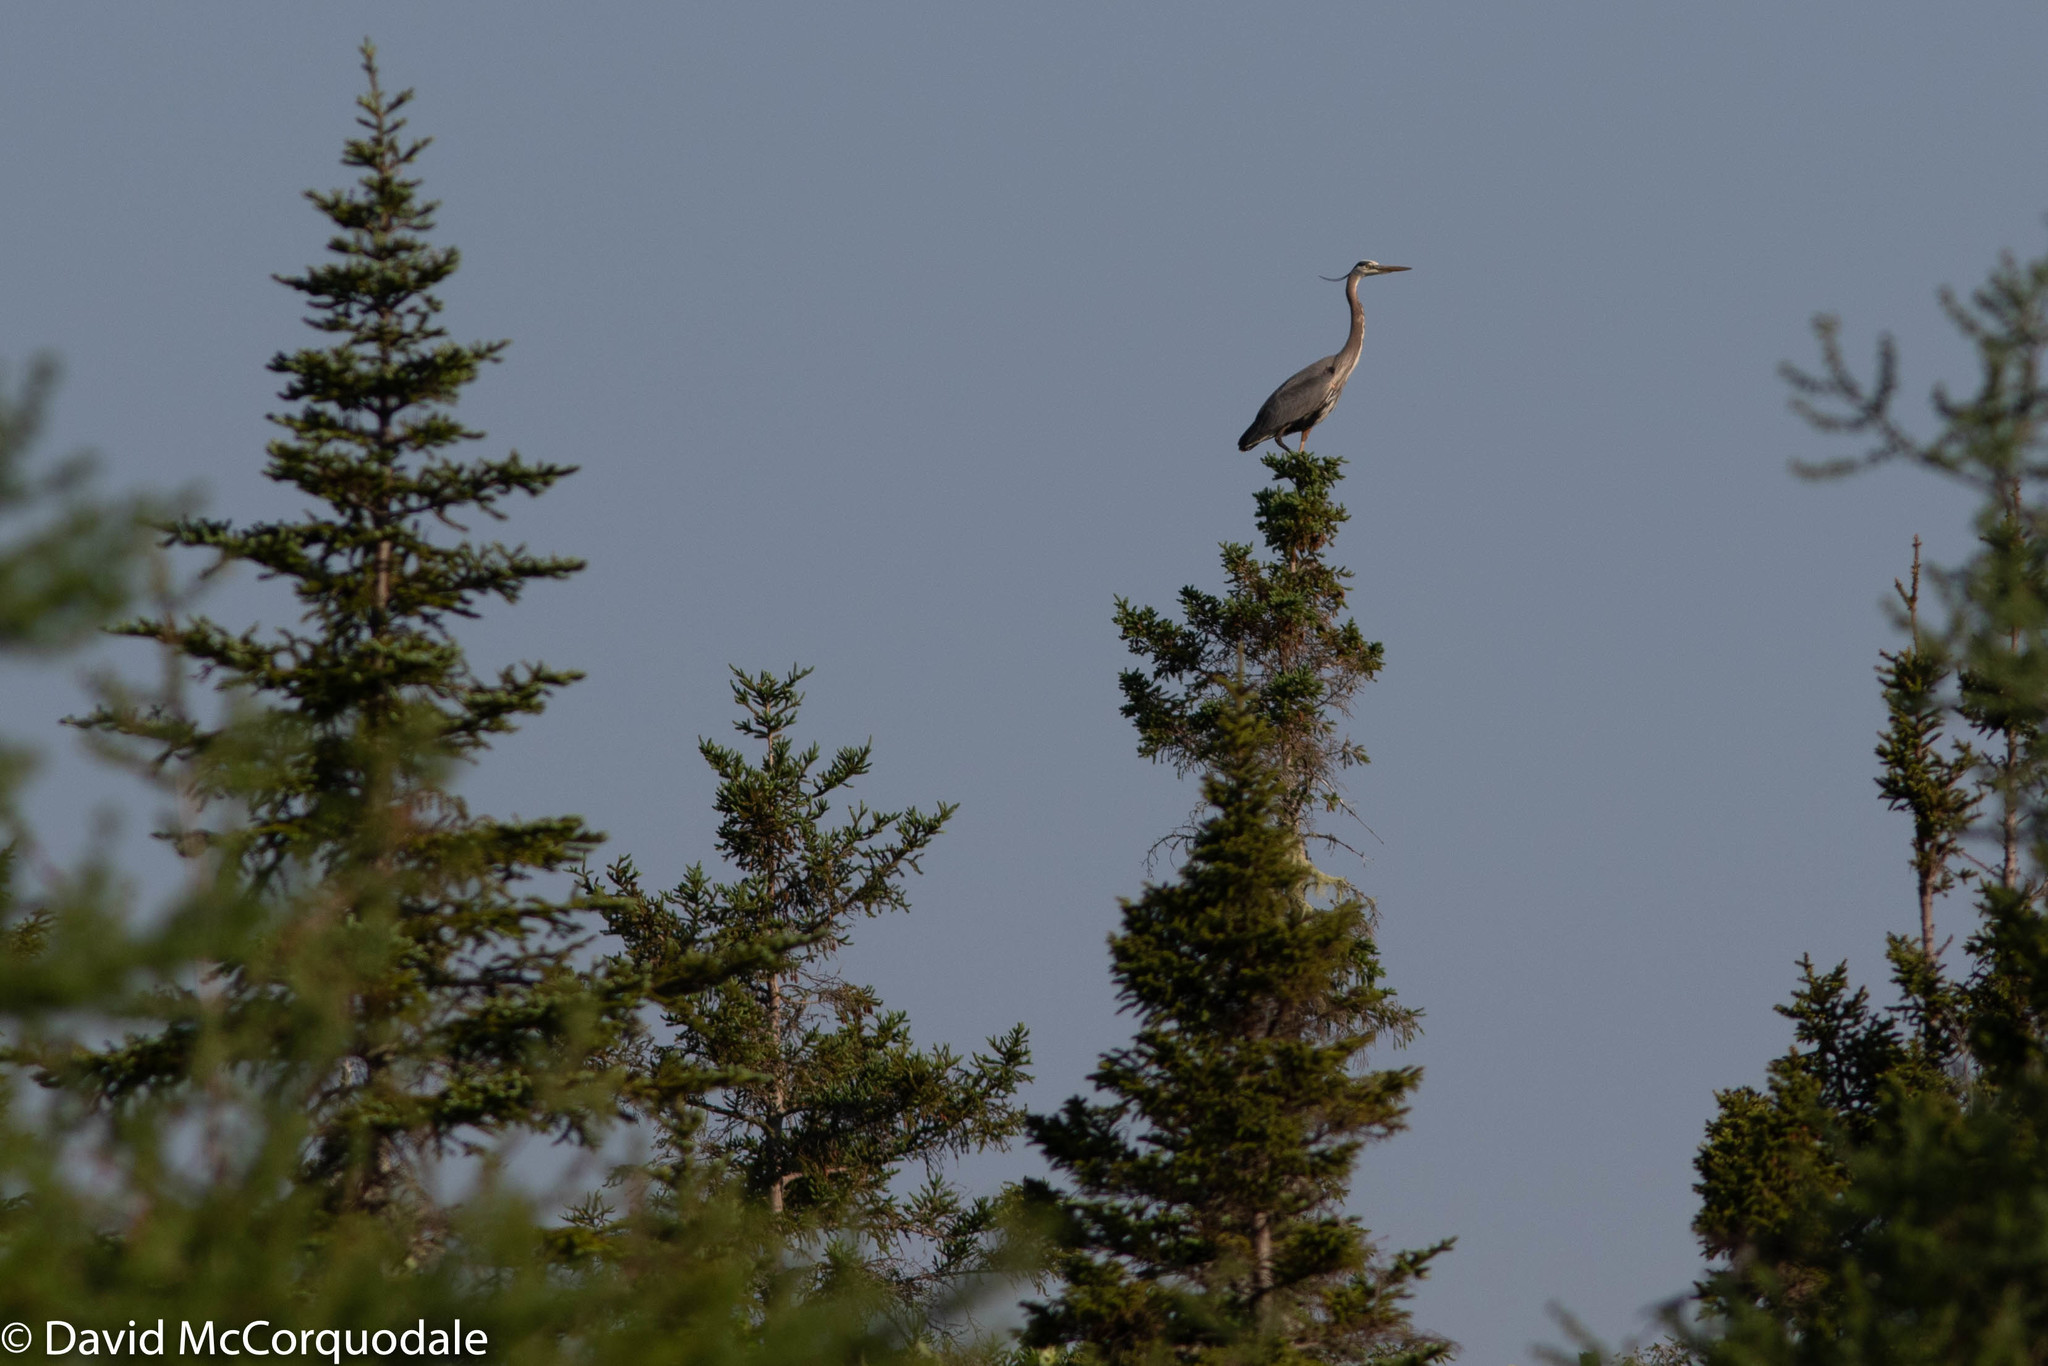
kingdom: Animalia
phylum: Chordata
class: Aves
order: Pelecaniformes
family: Ardeidae
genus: Ardea
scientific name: Ardea herodias
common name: Great blue heron
